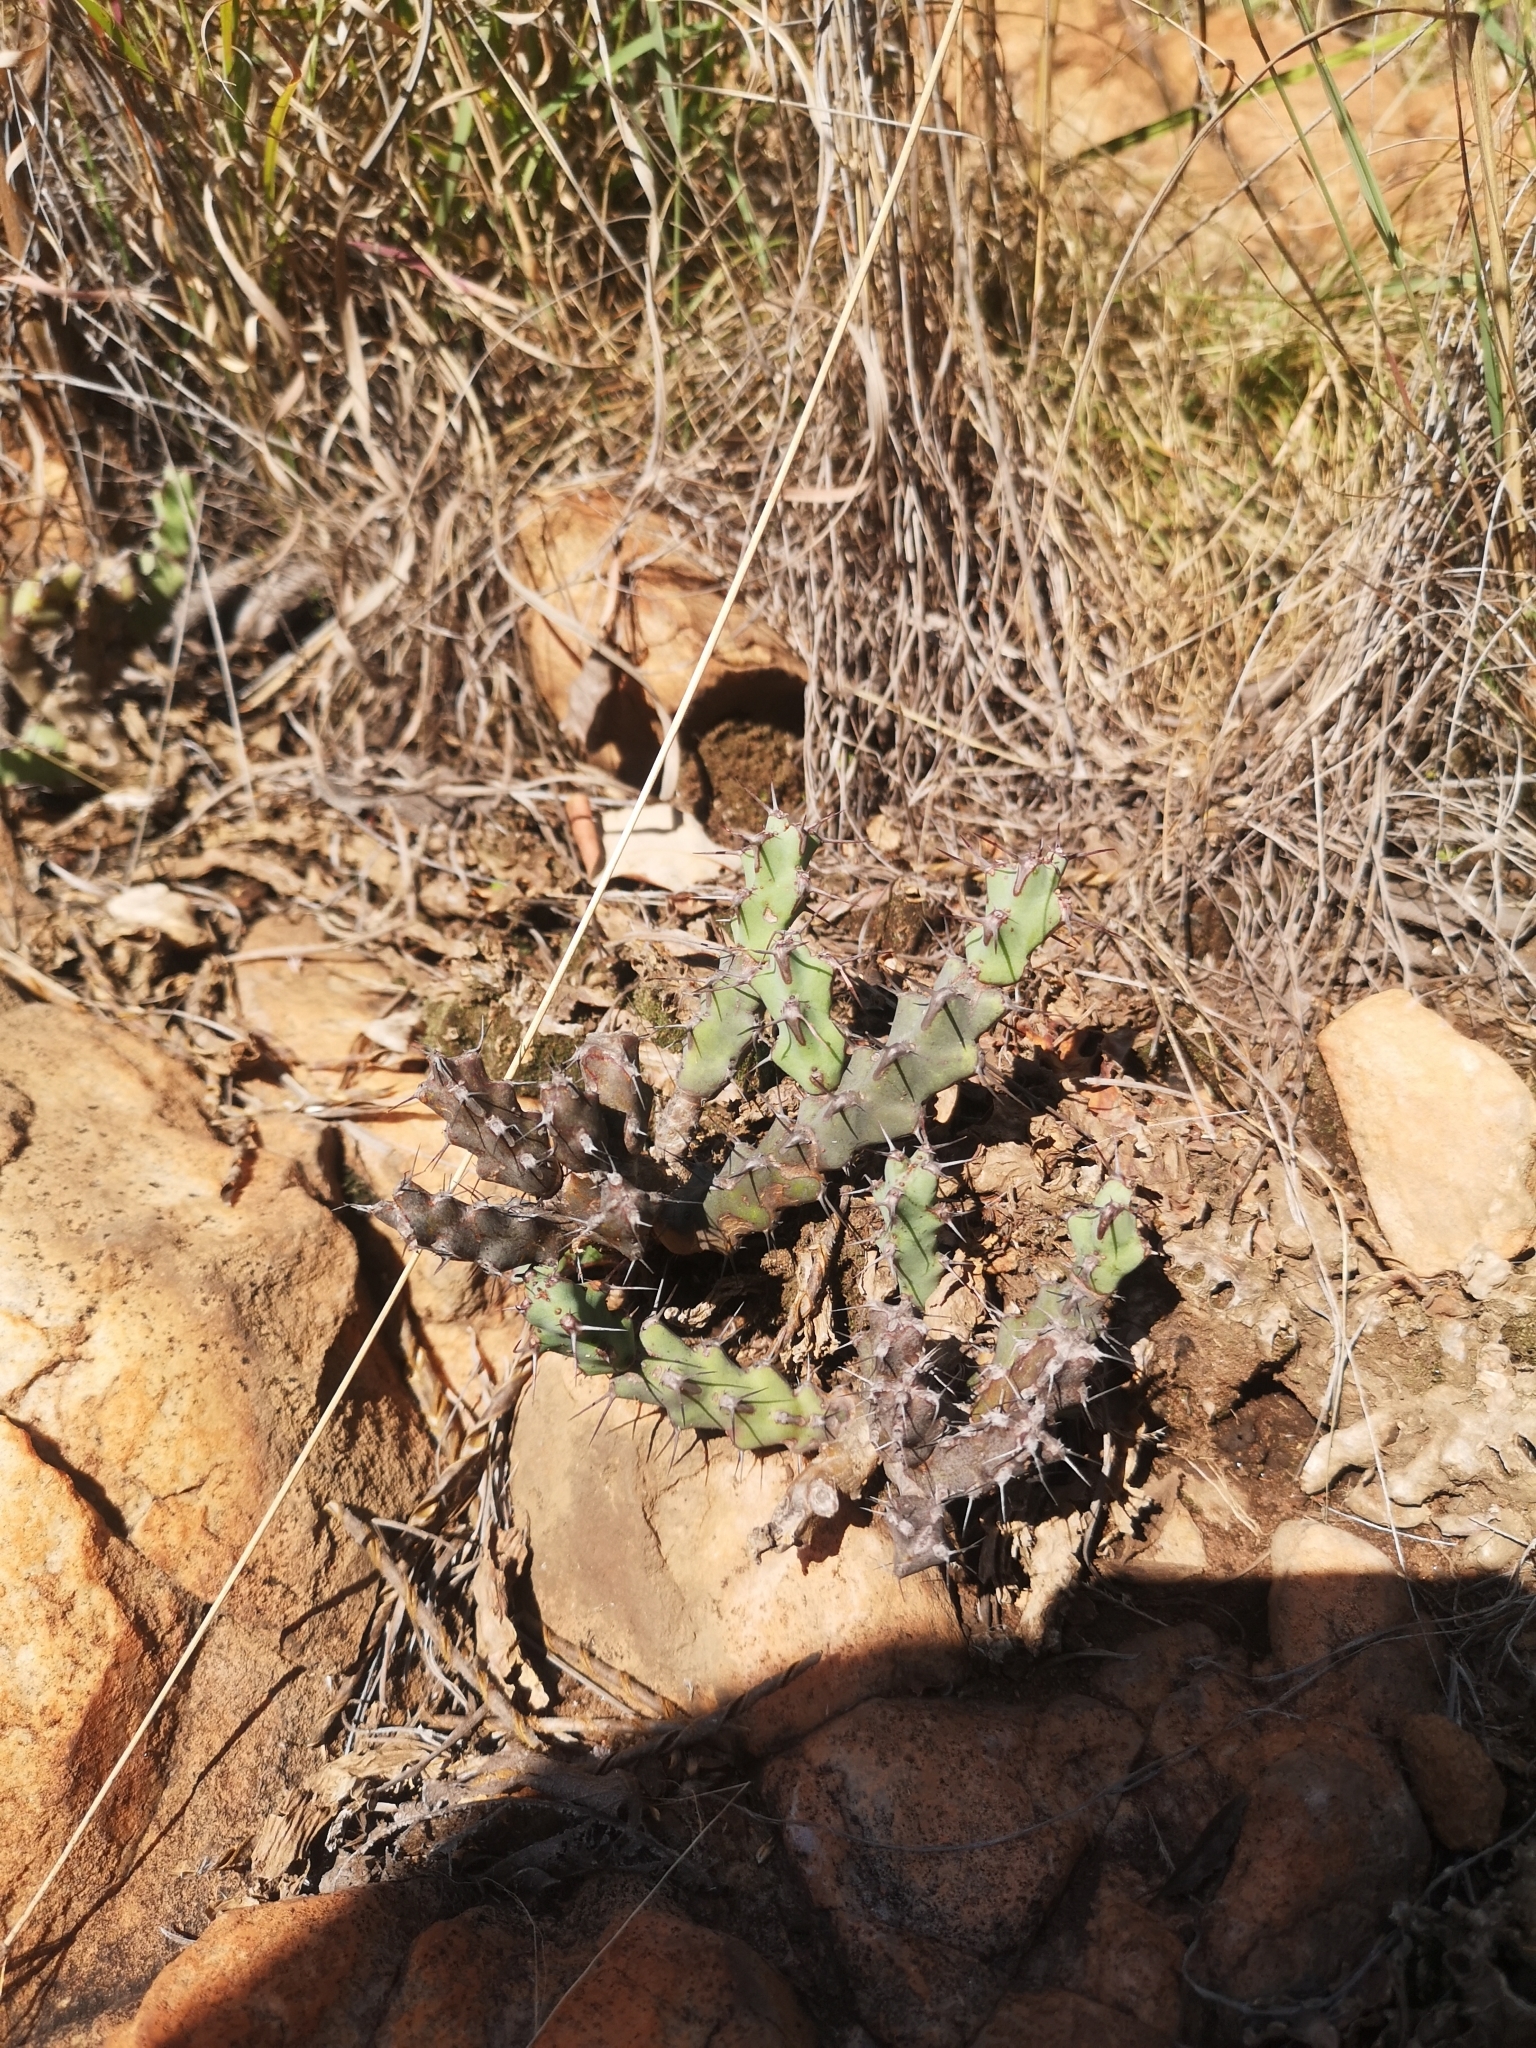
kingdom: Plantae
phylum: Tracheophyta
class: Magnoliopsida
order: Malpighiales
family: Euphorbiaceae
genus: Euphorbia
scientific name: Euphorbia schinzii
